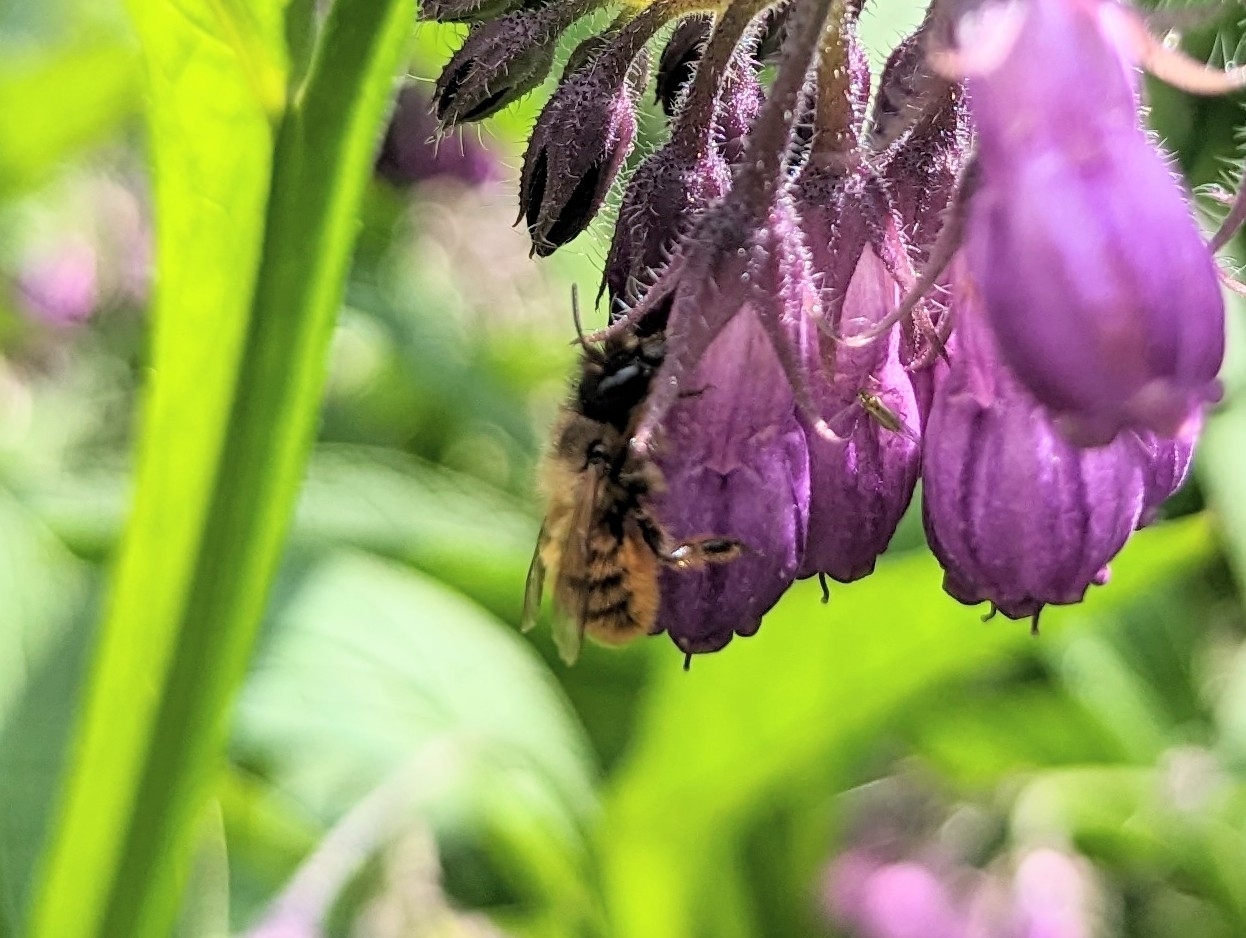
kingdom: Animalia
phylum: Arthropoda
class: Insecta
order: Hymenoptera
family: Megachilidae
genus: Osmia
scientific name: Osmia bicornis
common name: Red mason bee
